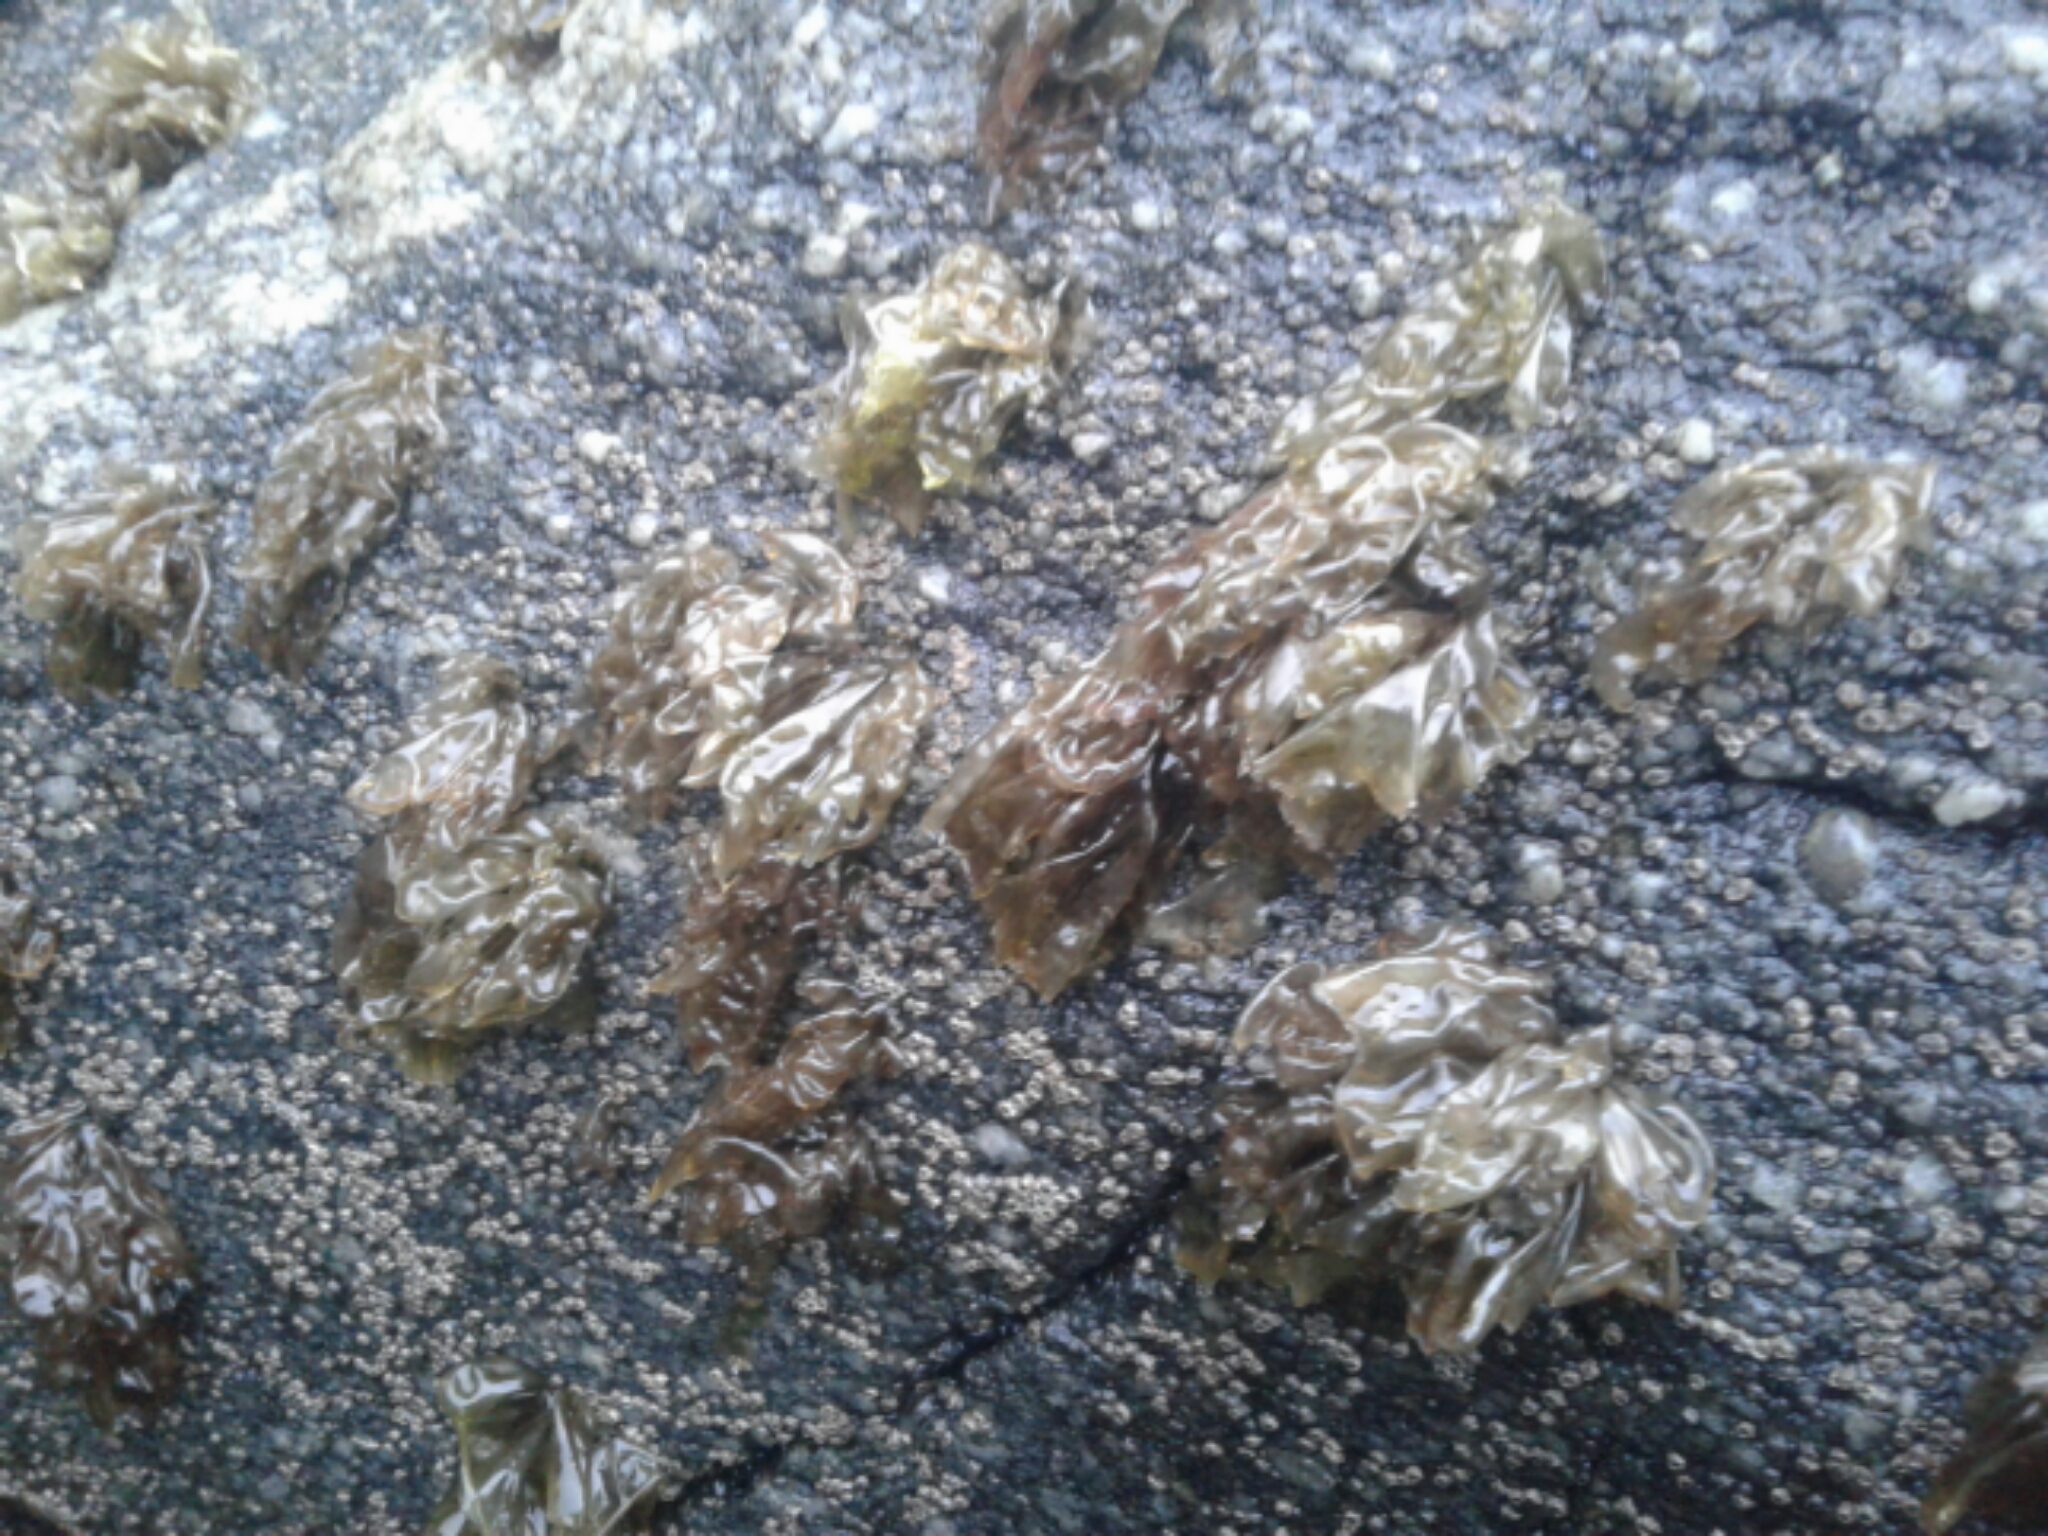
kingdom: Plantae
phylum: Rhodophyta
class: Bangiophyceae
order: Bangiales
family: Bangiaceae
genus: Pyropia
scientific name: Pyropia plicata
